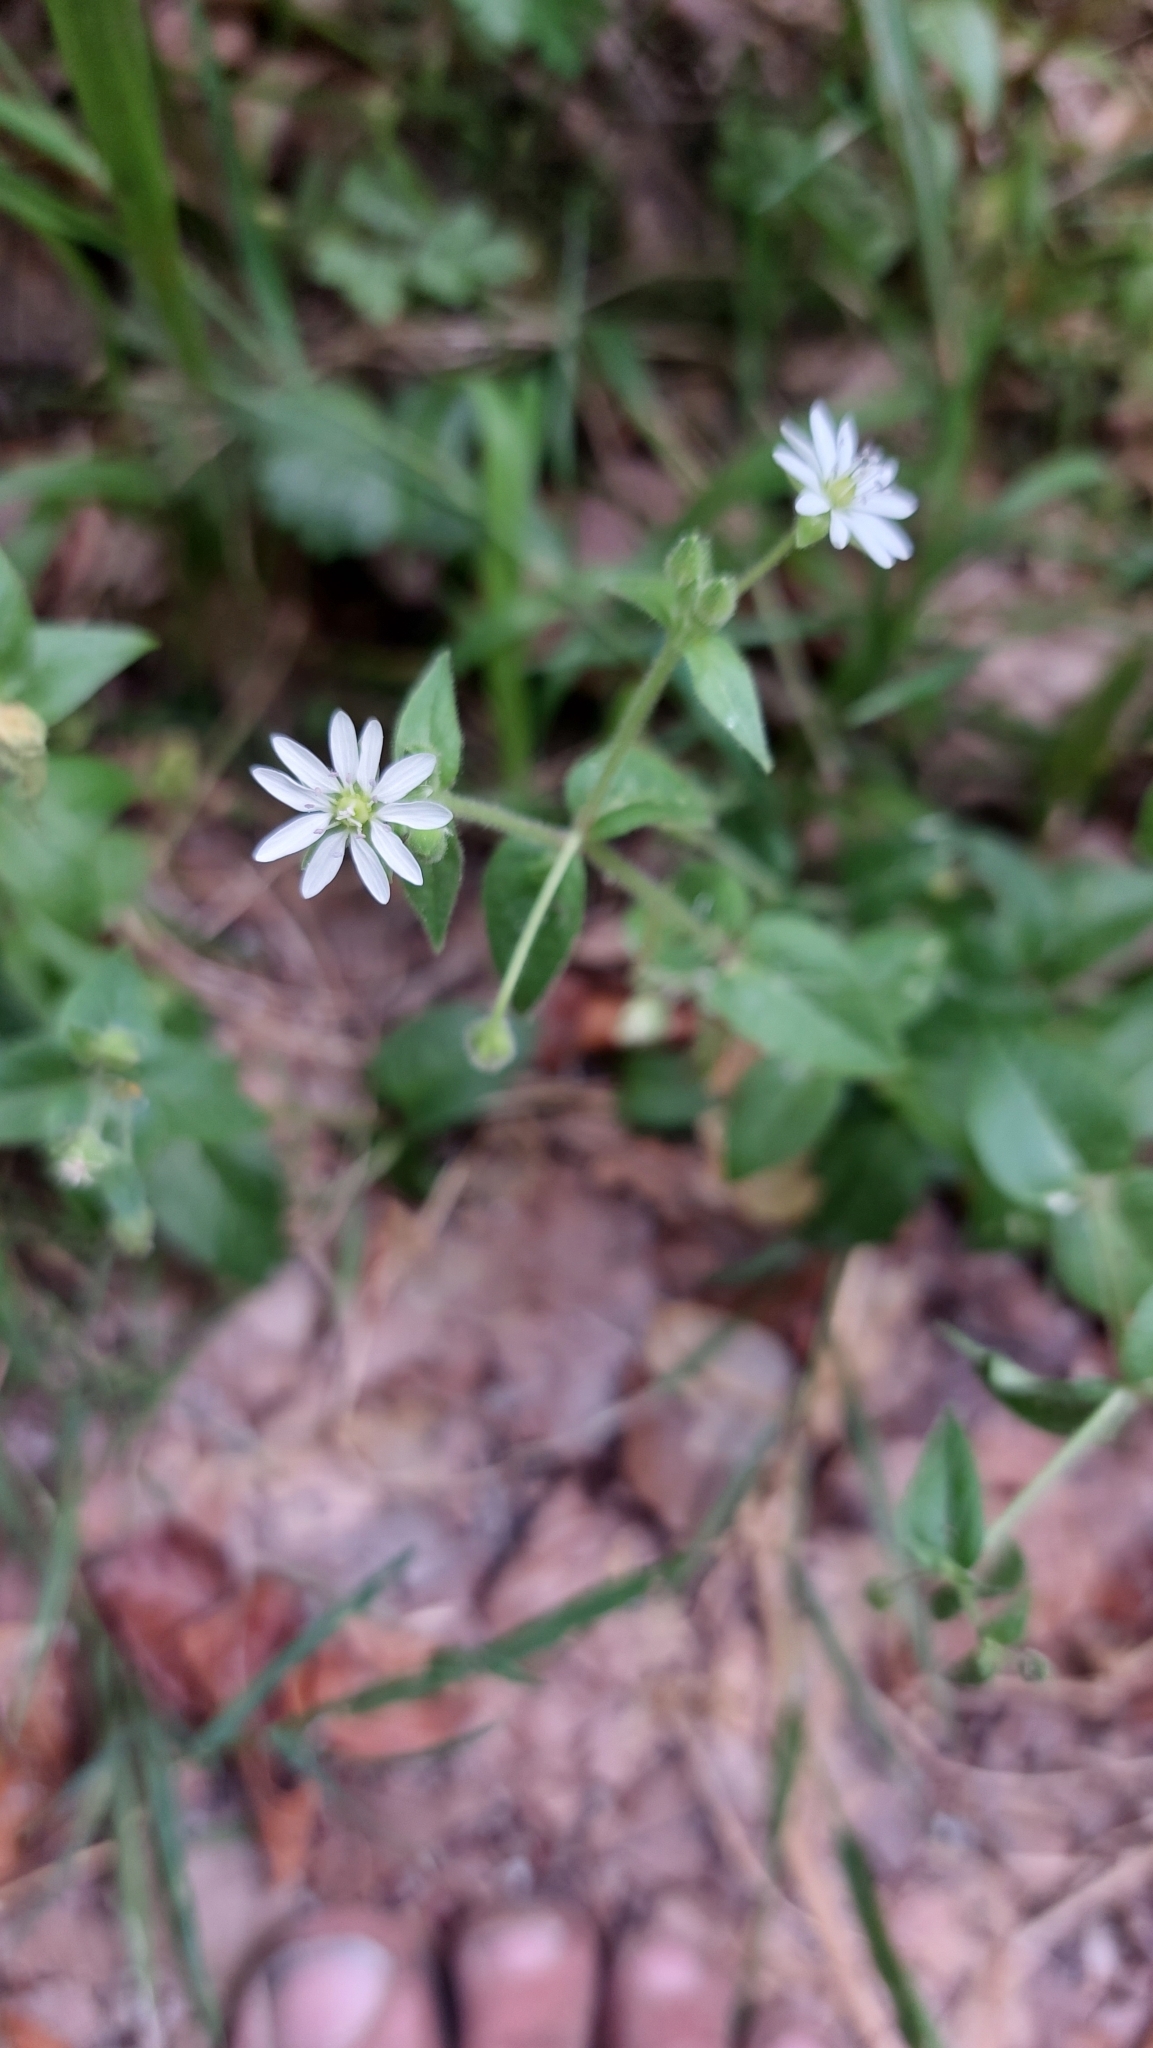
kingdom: Plantae
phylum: Tracheophyta
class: Magnoliopsida
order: Caryophyllales
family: Caryophyllaceae
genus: Stellaria
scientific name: Stellaria aquatica
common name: Water chickweed
